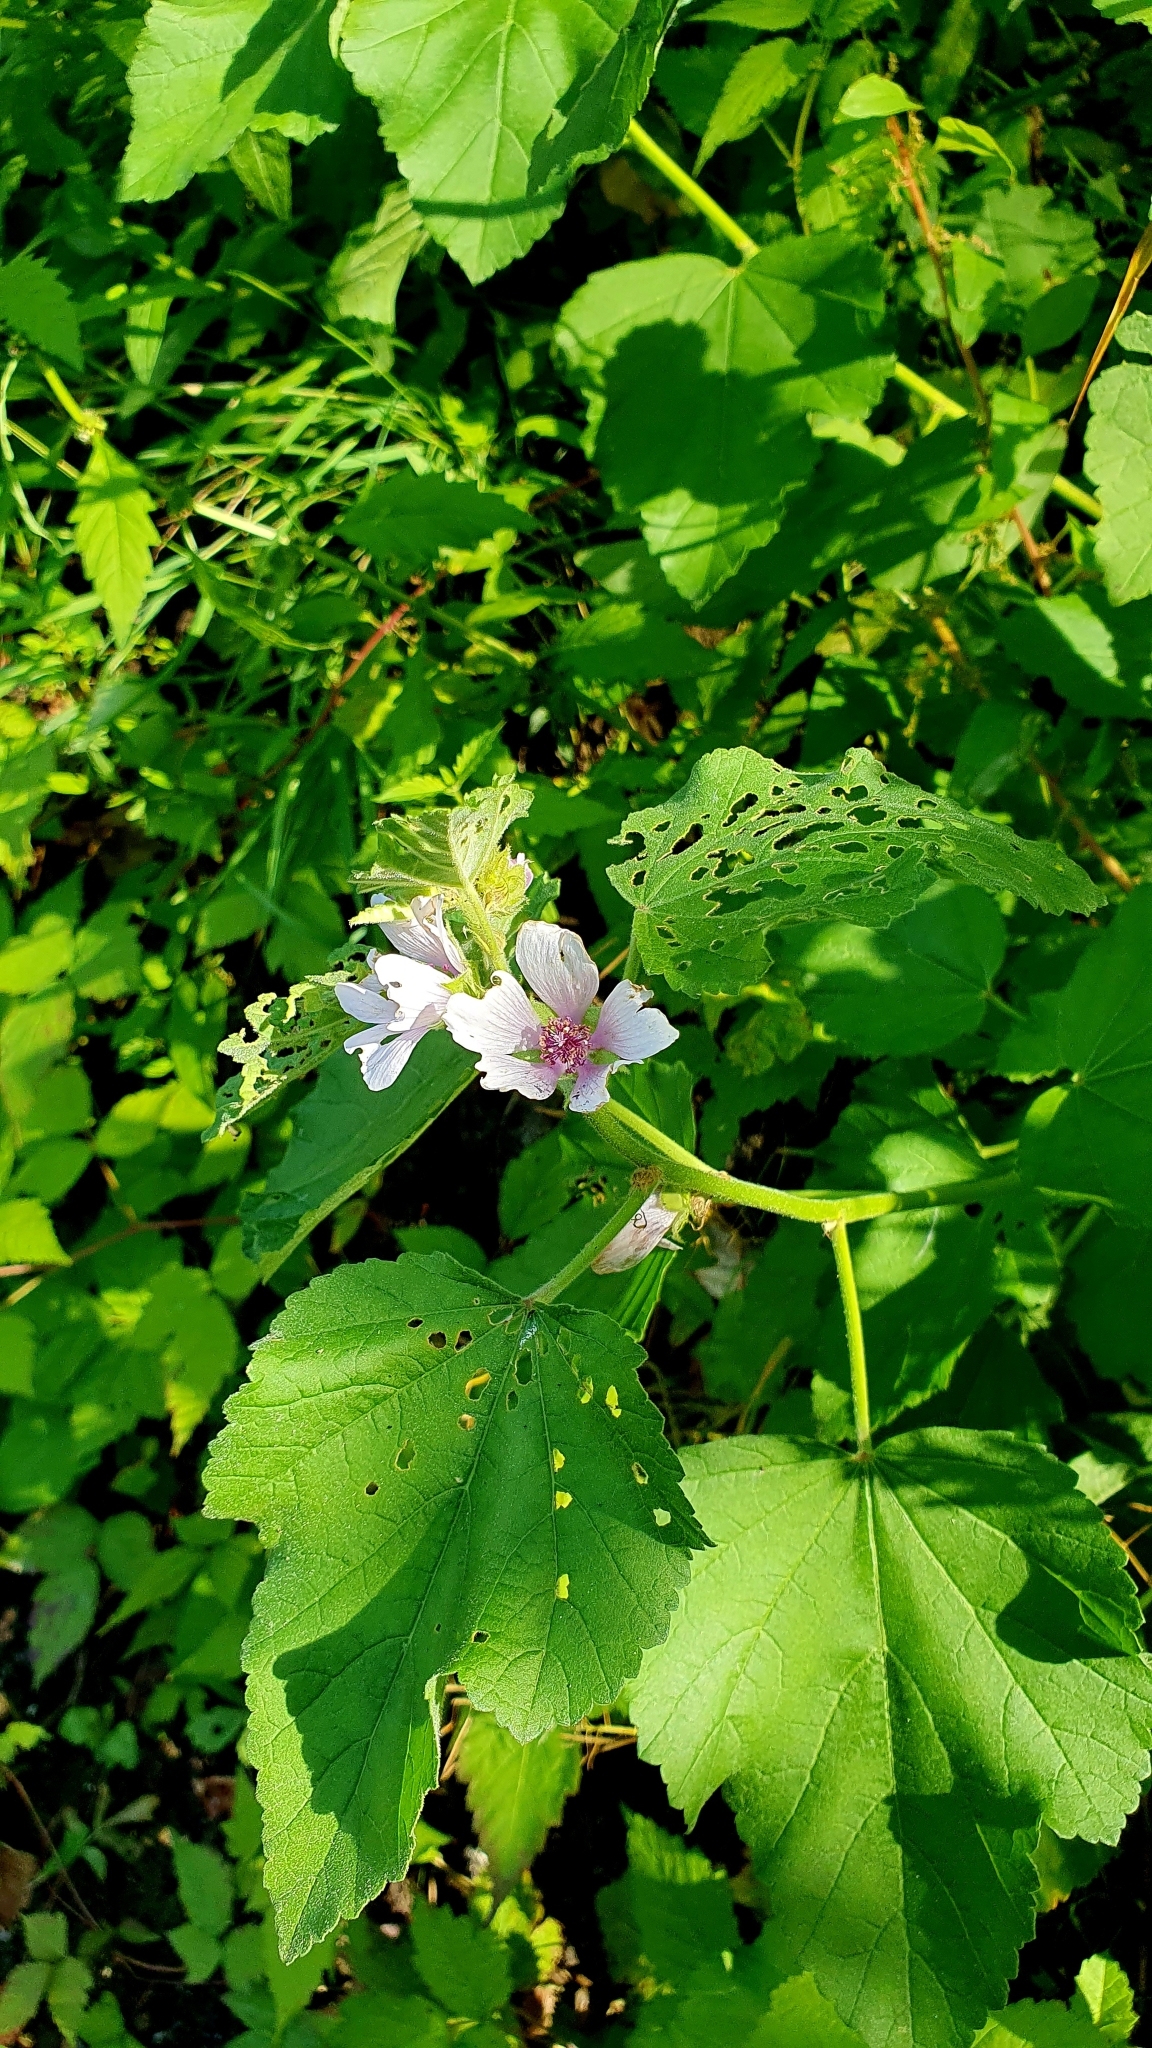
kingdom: Plantae
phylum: Tracheophyta
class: Magnoliopsida
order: Malvales
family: Malvaceae
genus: Althaea
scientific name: Althaea officinalis
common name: Marsh-mallow
